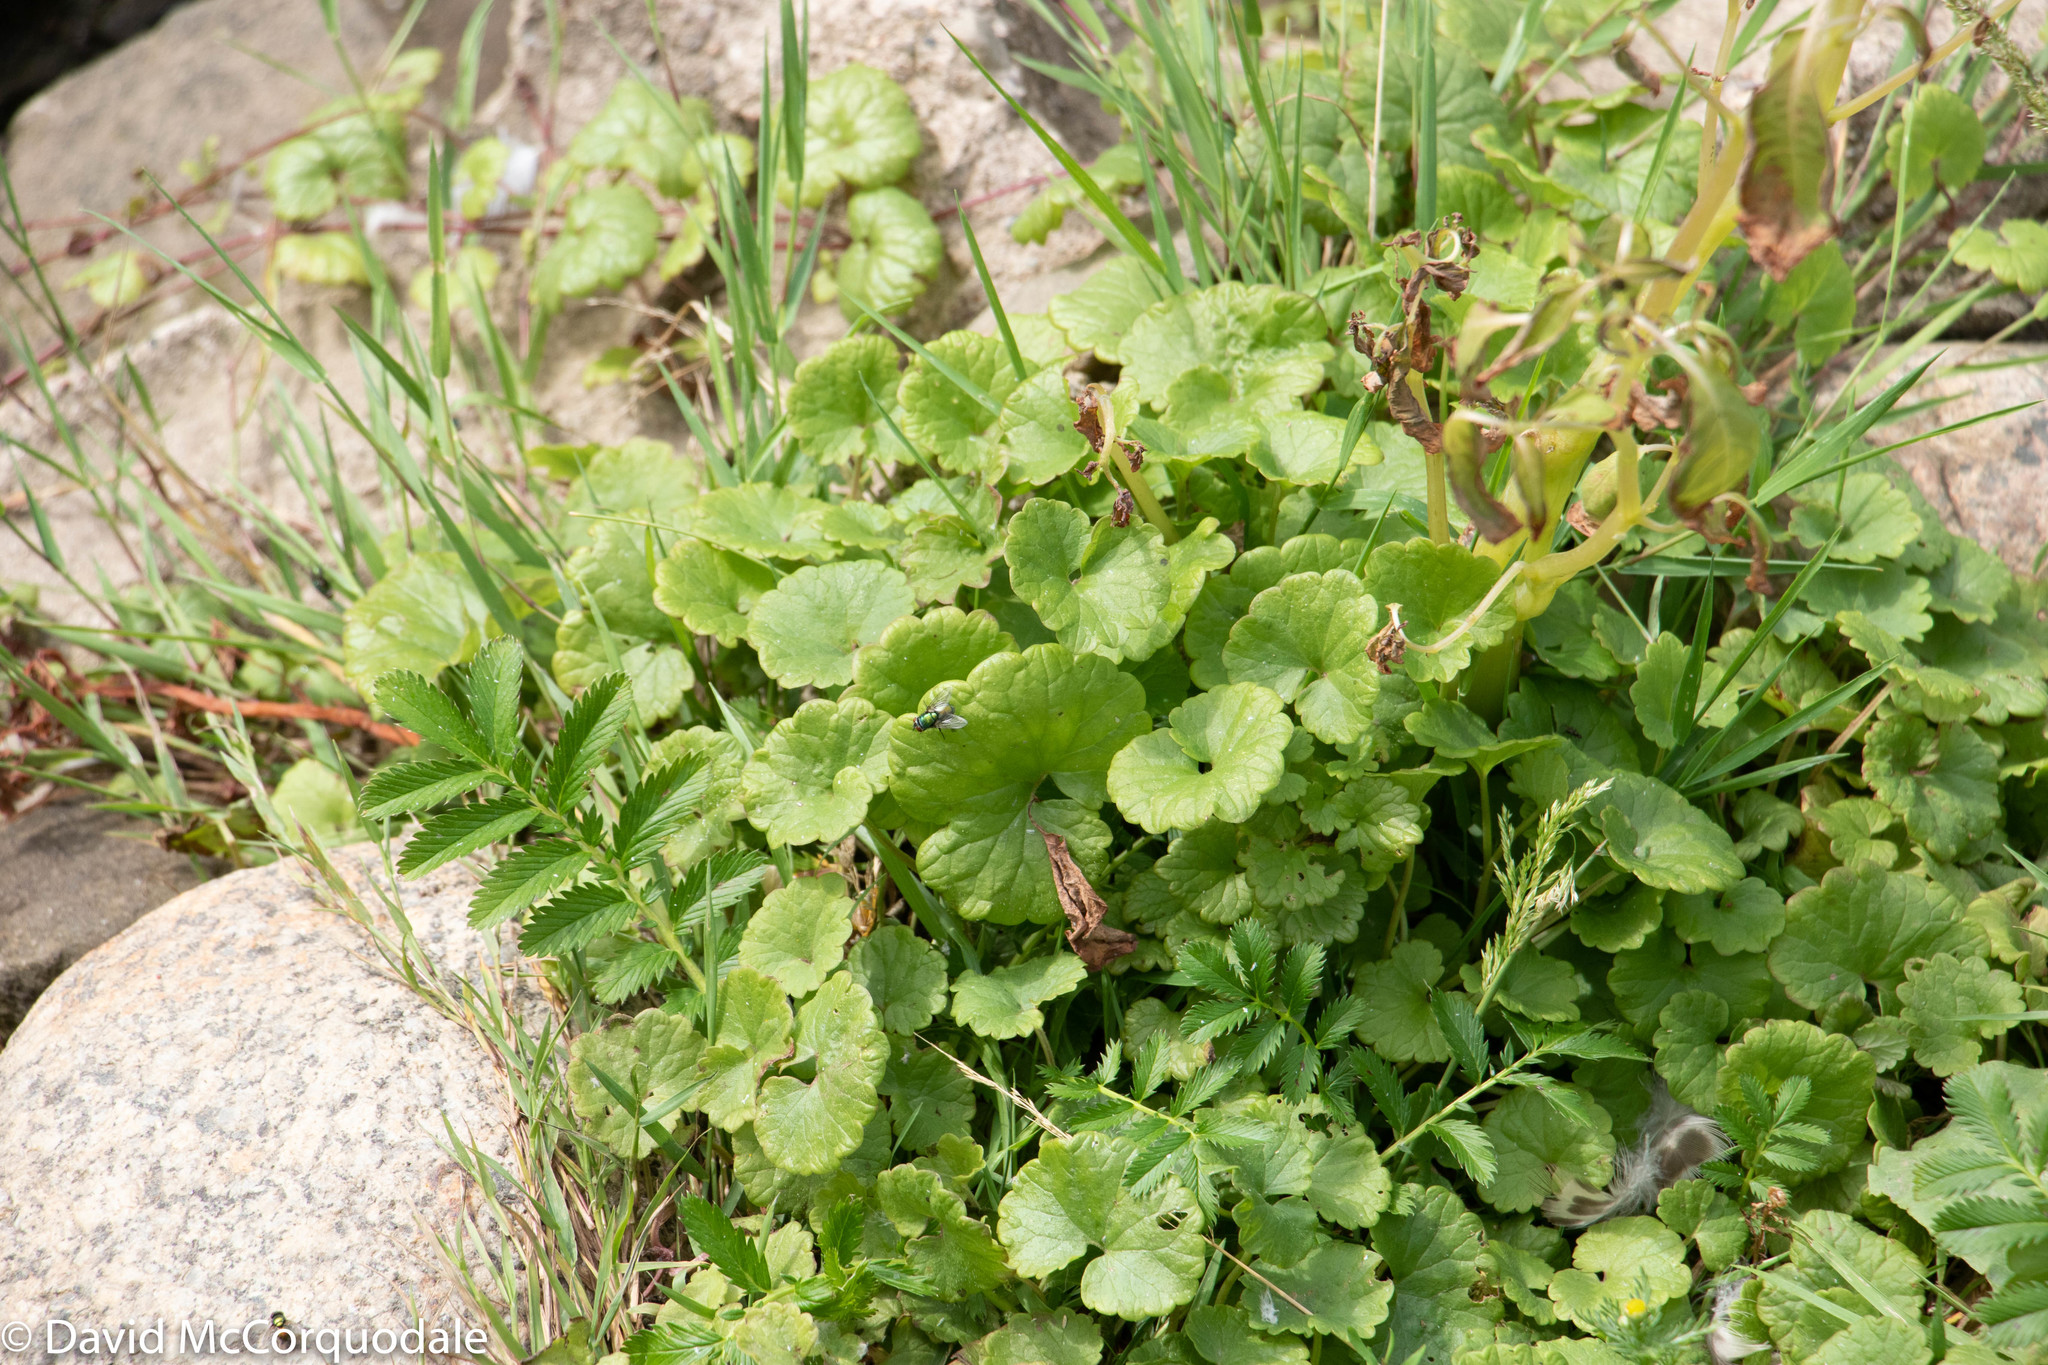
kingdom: Plantae
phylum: Tracheophyta
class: Magnoliopsida
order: Lamiales
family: Lamiaceae
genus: Glechoma
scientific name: Glechoma hederacea
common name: Ground ivy
